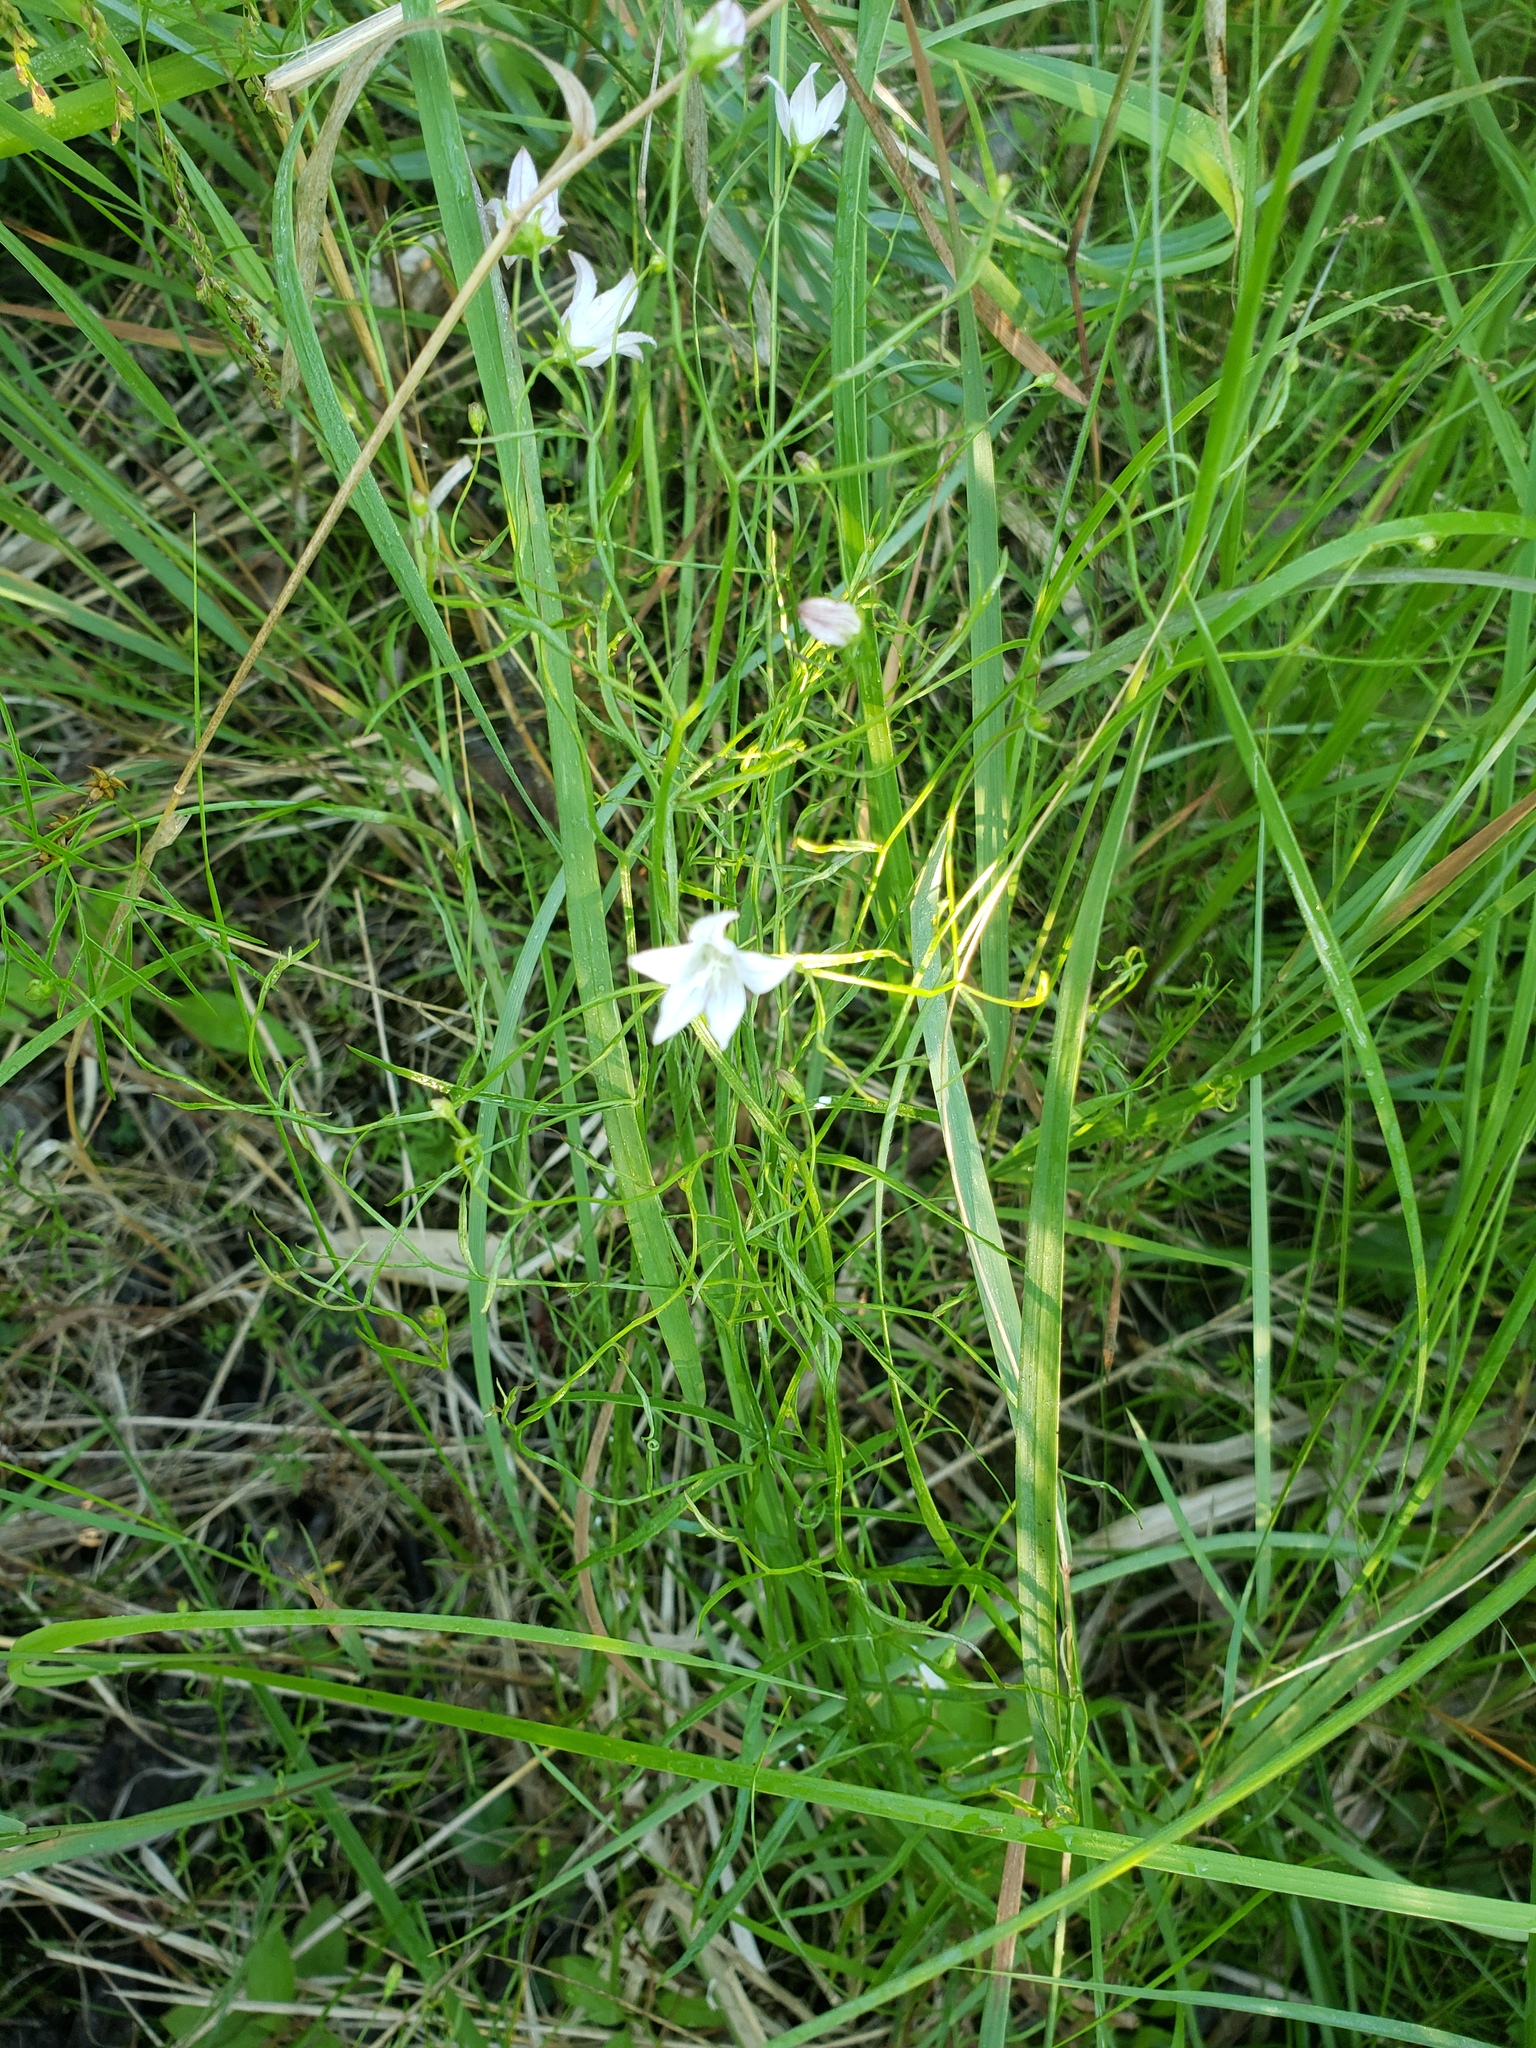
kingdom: Plantae
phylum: Tracheophyta
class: Magnoliopsida
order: Asterales
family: Campanulaceae
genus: Palustricodon
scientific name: Palustricodon aparinoides
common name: Bedstraw bellflower
